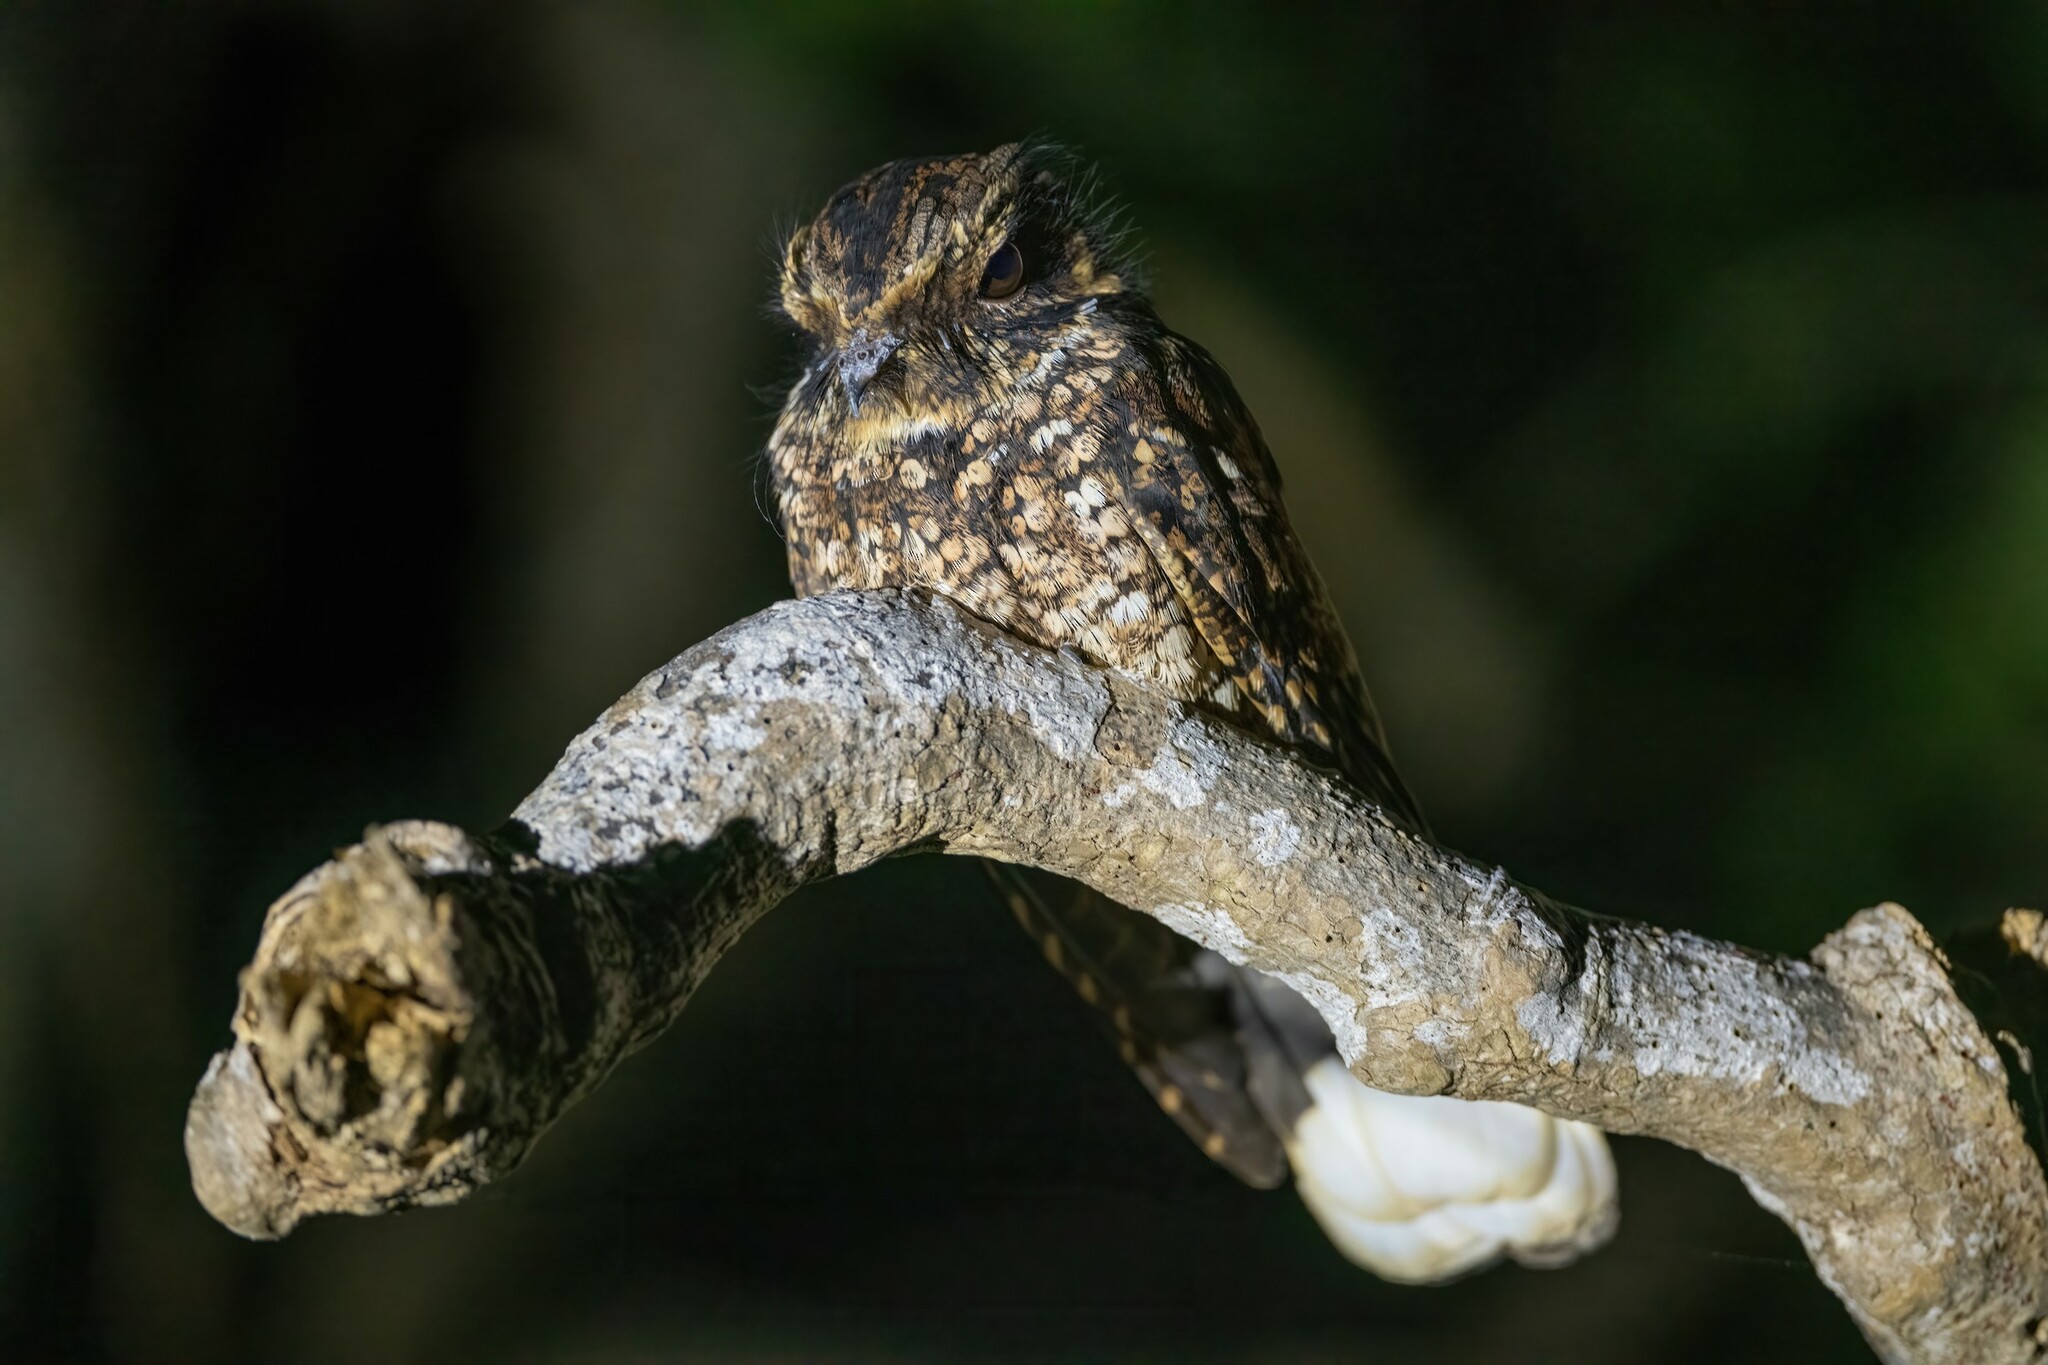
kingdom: Animalia
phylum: Chordata
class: Aves
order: Caprimulgiformes
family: Caprimulgidae
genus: Antrostomus
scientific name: Antrostomus noctitherus
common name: Puerto rican nightjar
